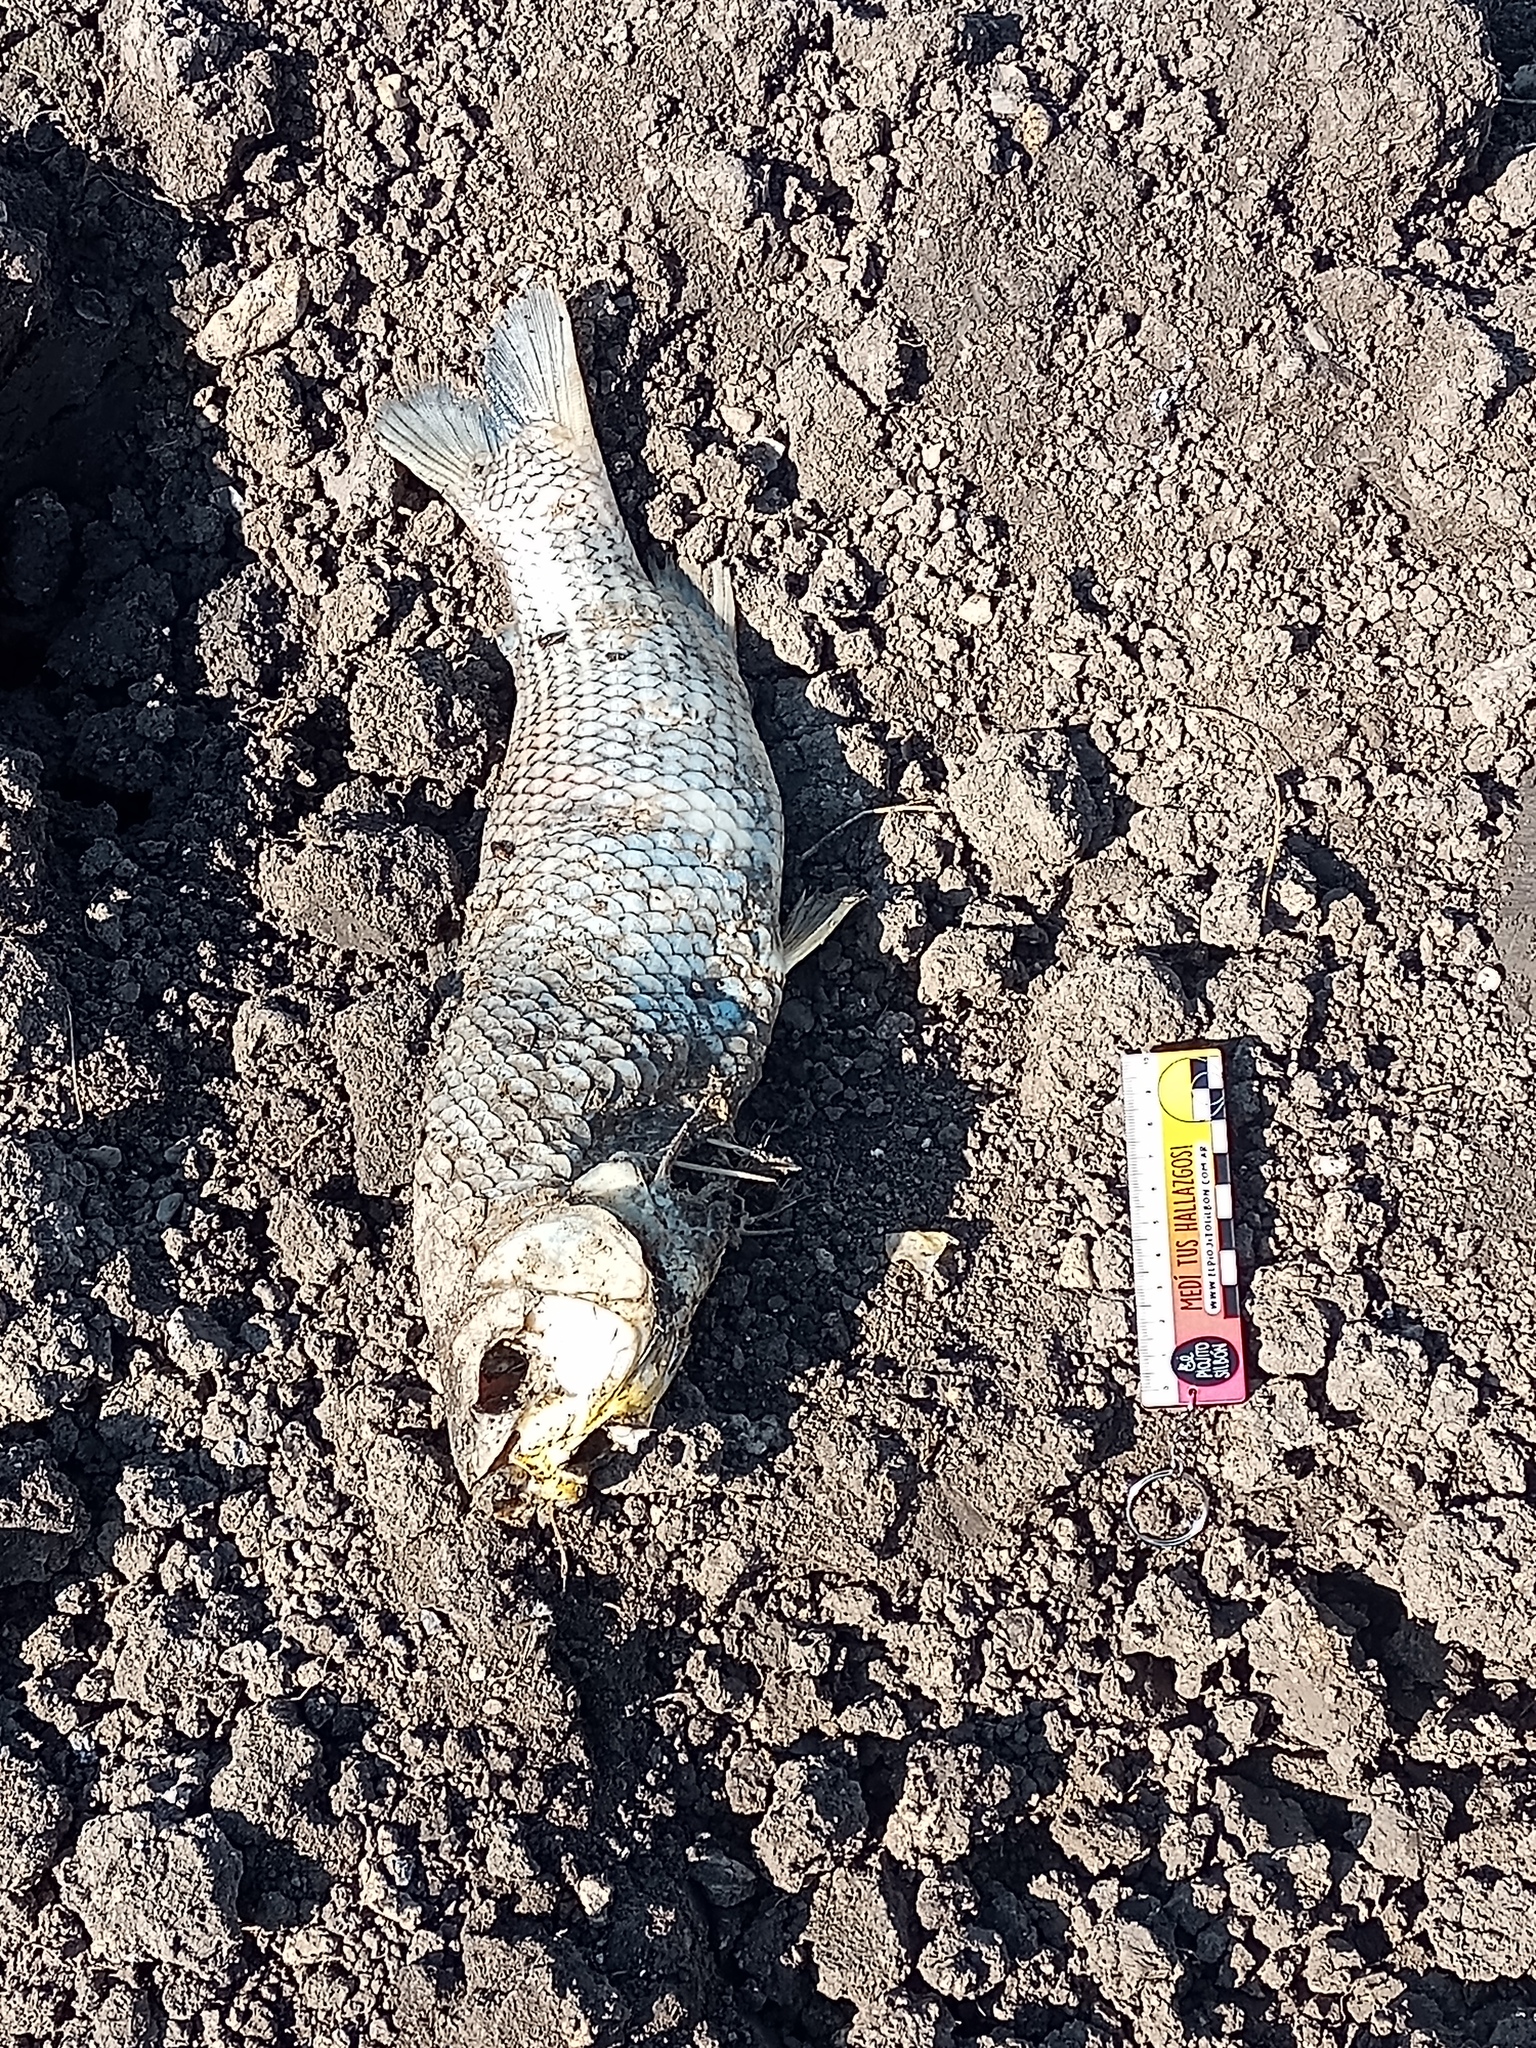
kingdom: Animalia
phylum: Chordata
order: Characiformes
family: Prochilodontidae
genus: Prochilodus
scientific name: Prochilodus lineatus
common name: Curimbata
